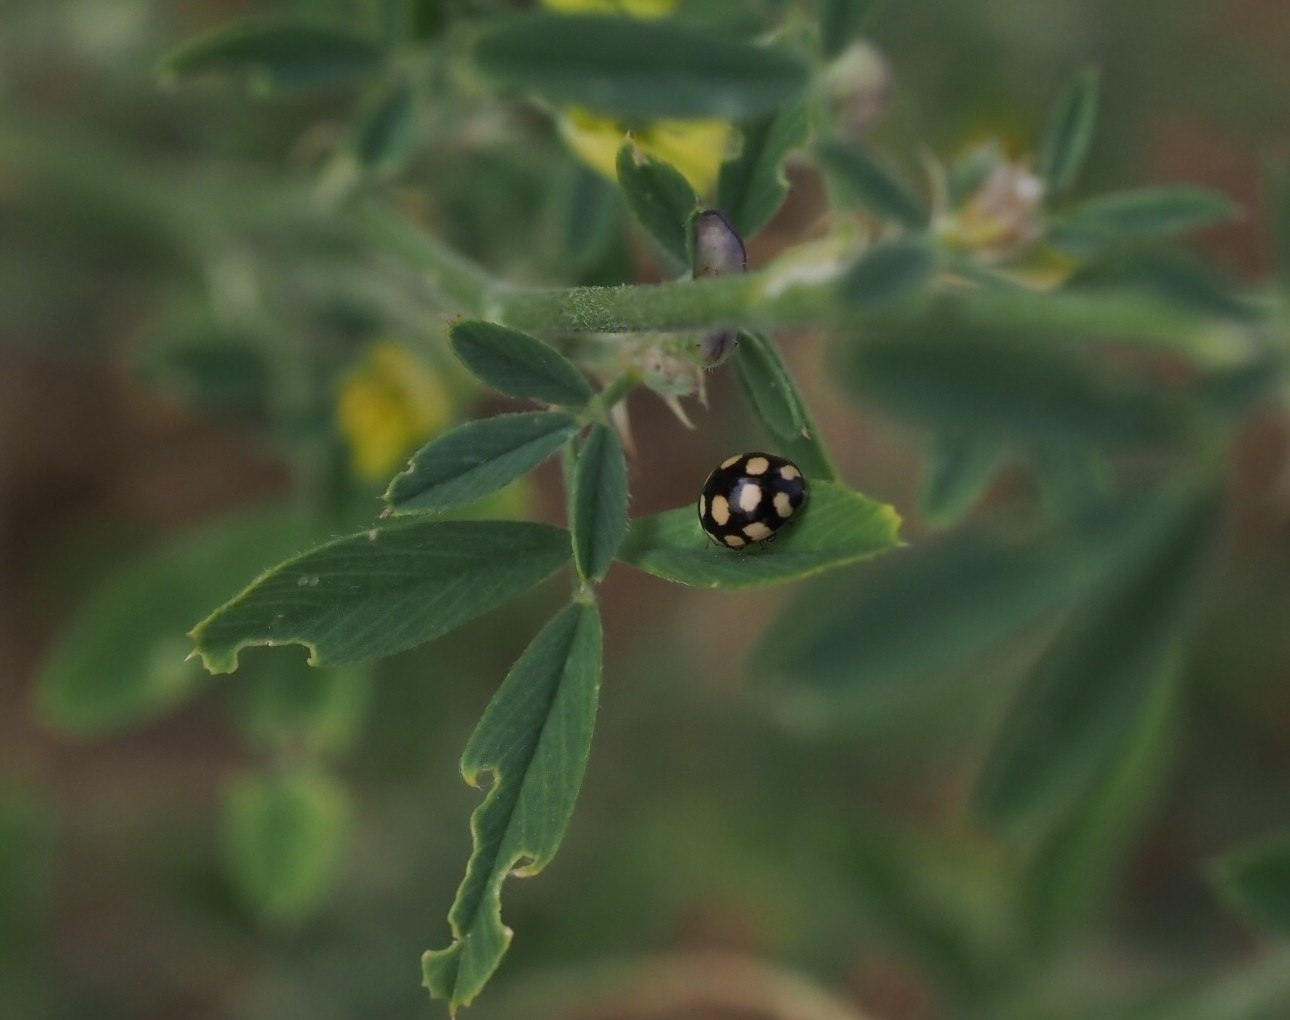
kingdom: Animalia
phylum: Arthropoda
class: Insecta
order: Coleoptera
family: Coccinellidae
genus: Coccinula
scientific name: Coccinula quatuordecimpustulata
